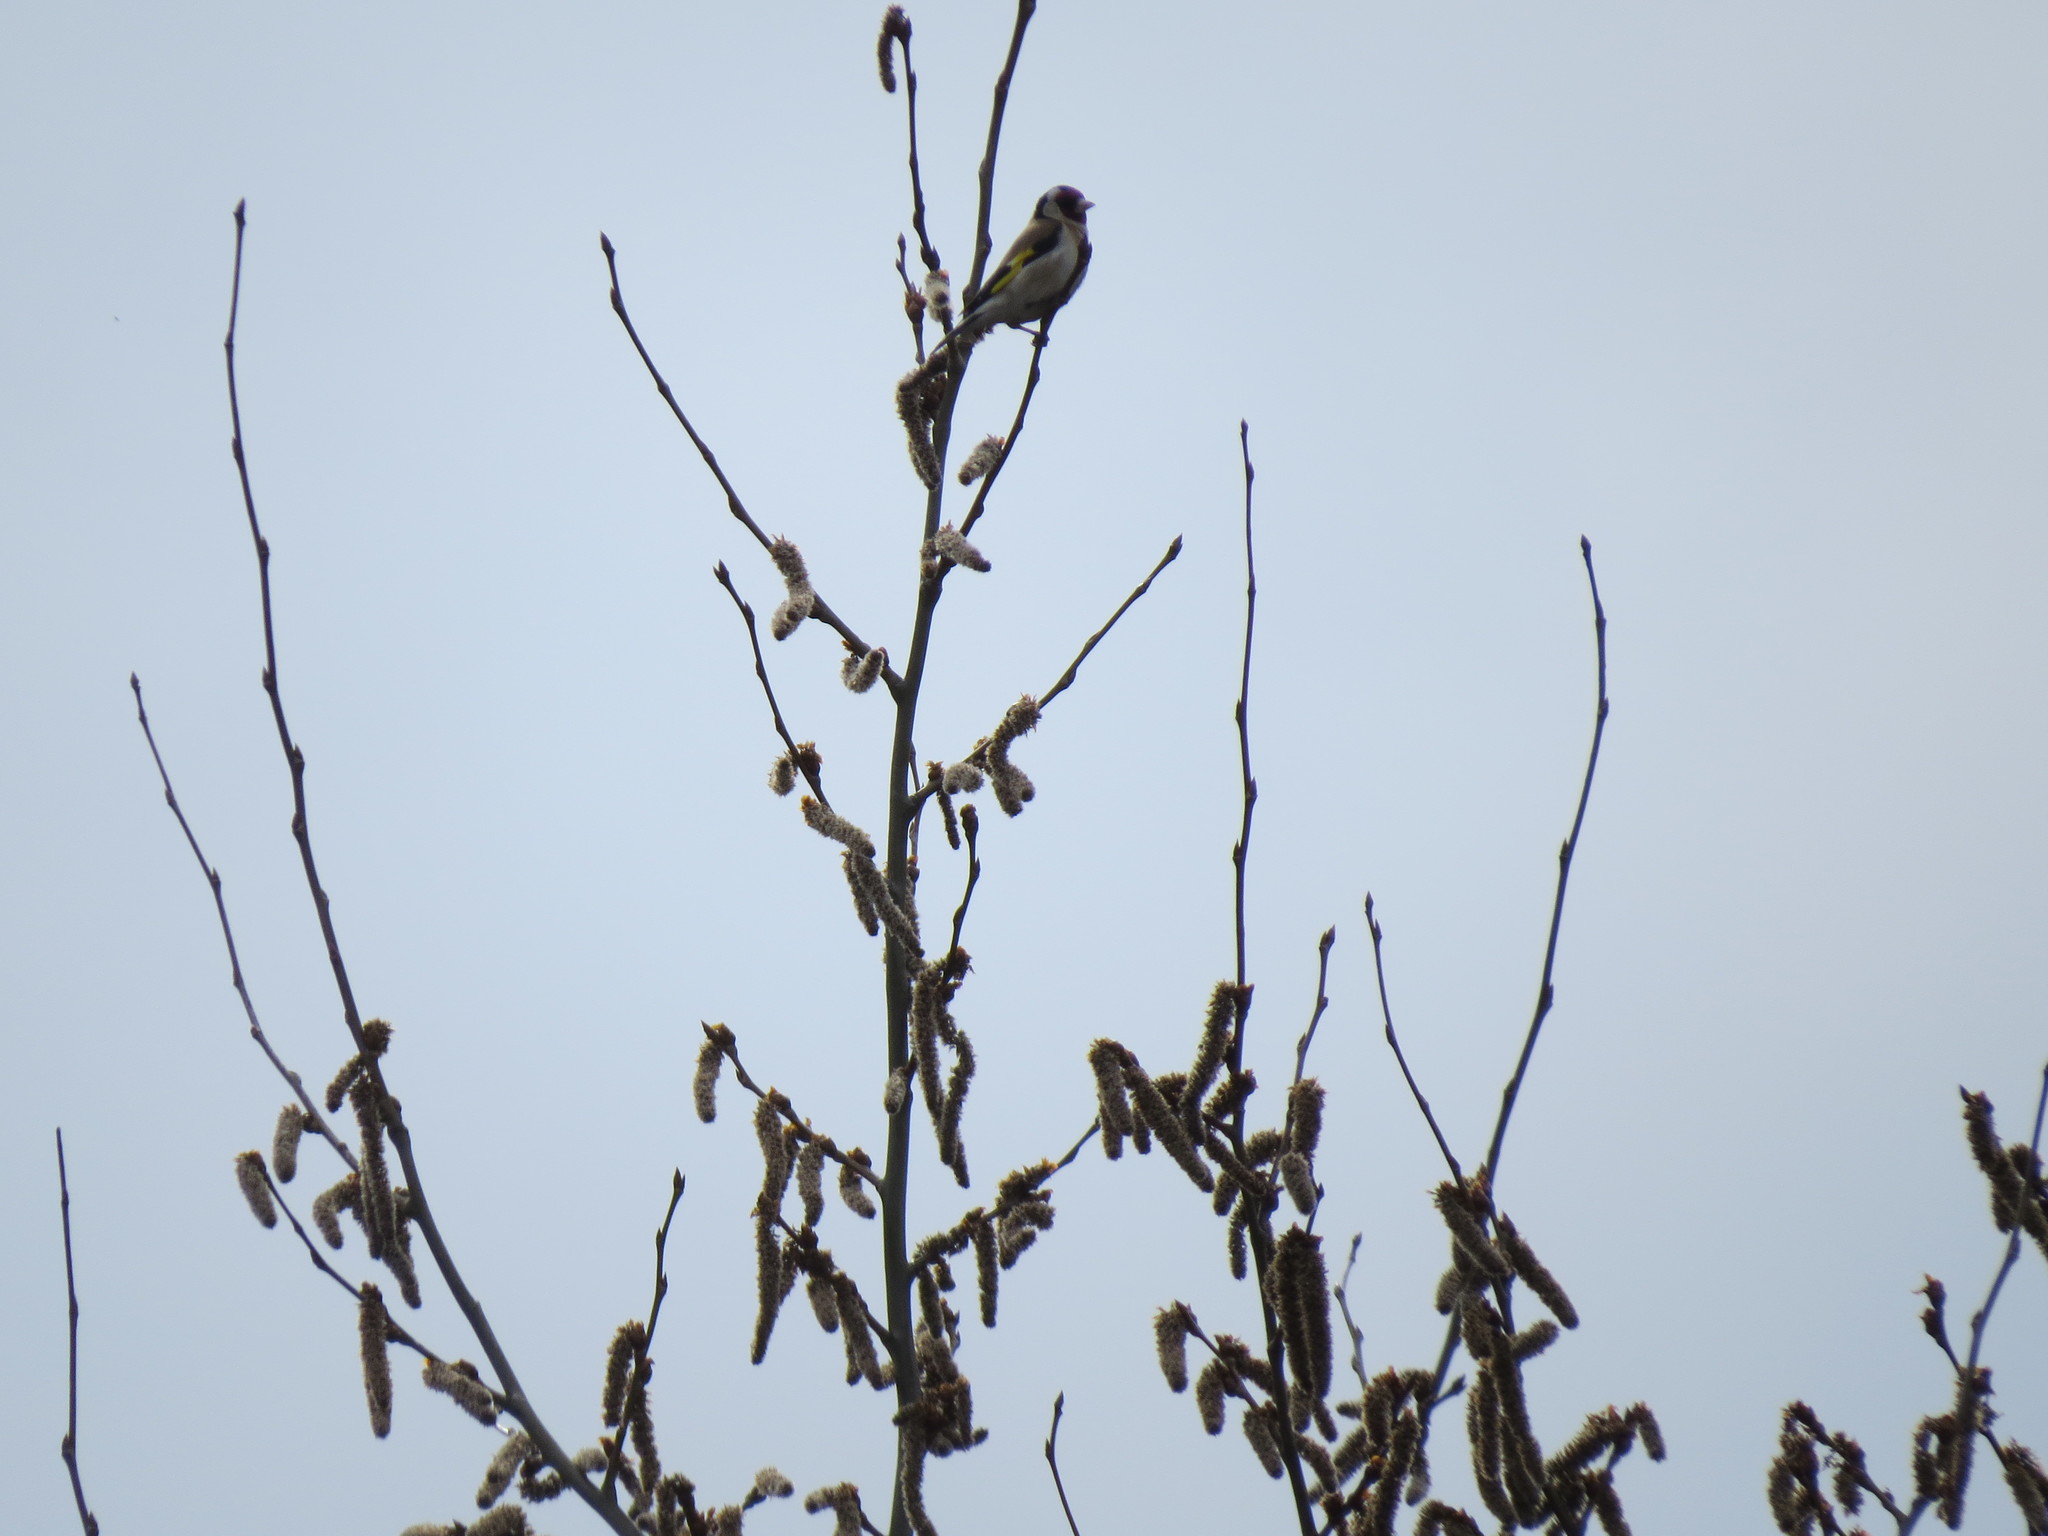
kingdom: Animalia
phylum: Chordata
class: Aves
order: Passeriformes
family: Fringillidae
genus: Carduelis
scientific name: Carduelis carduelis
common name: European goldfinch
